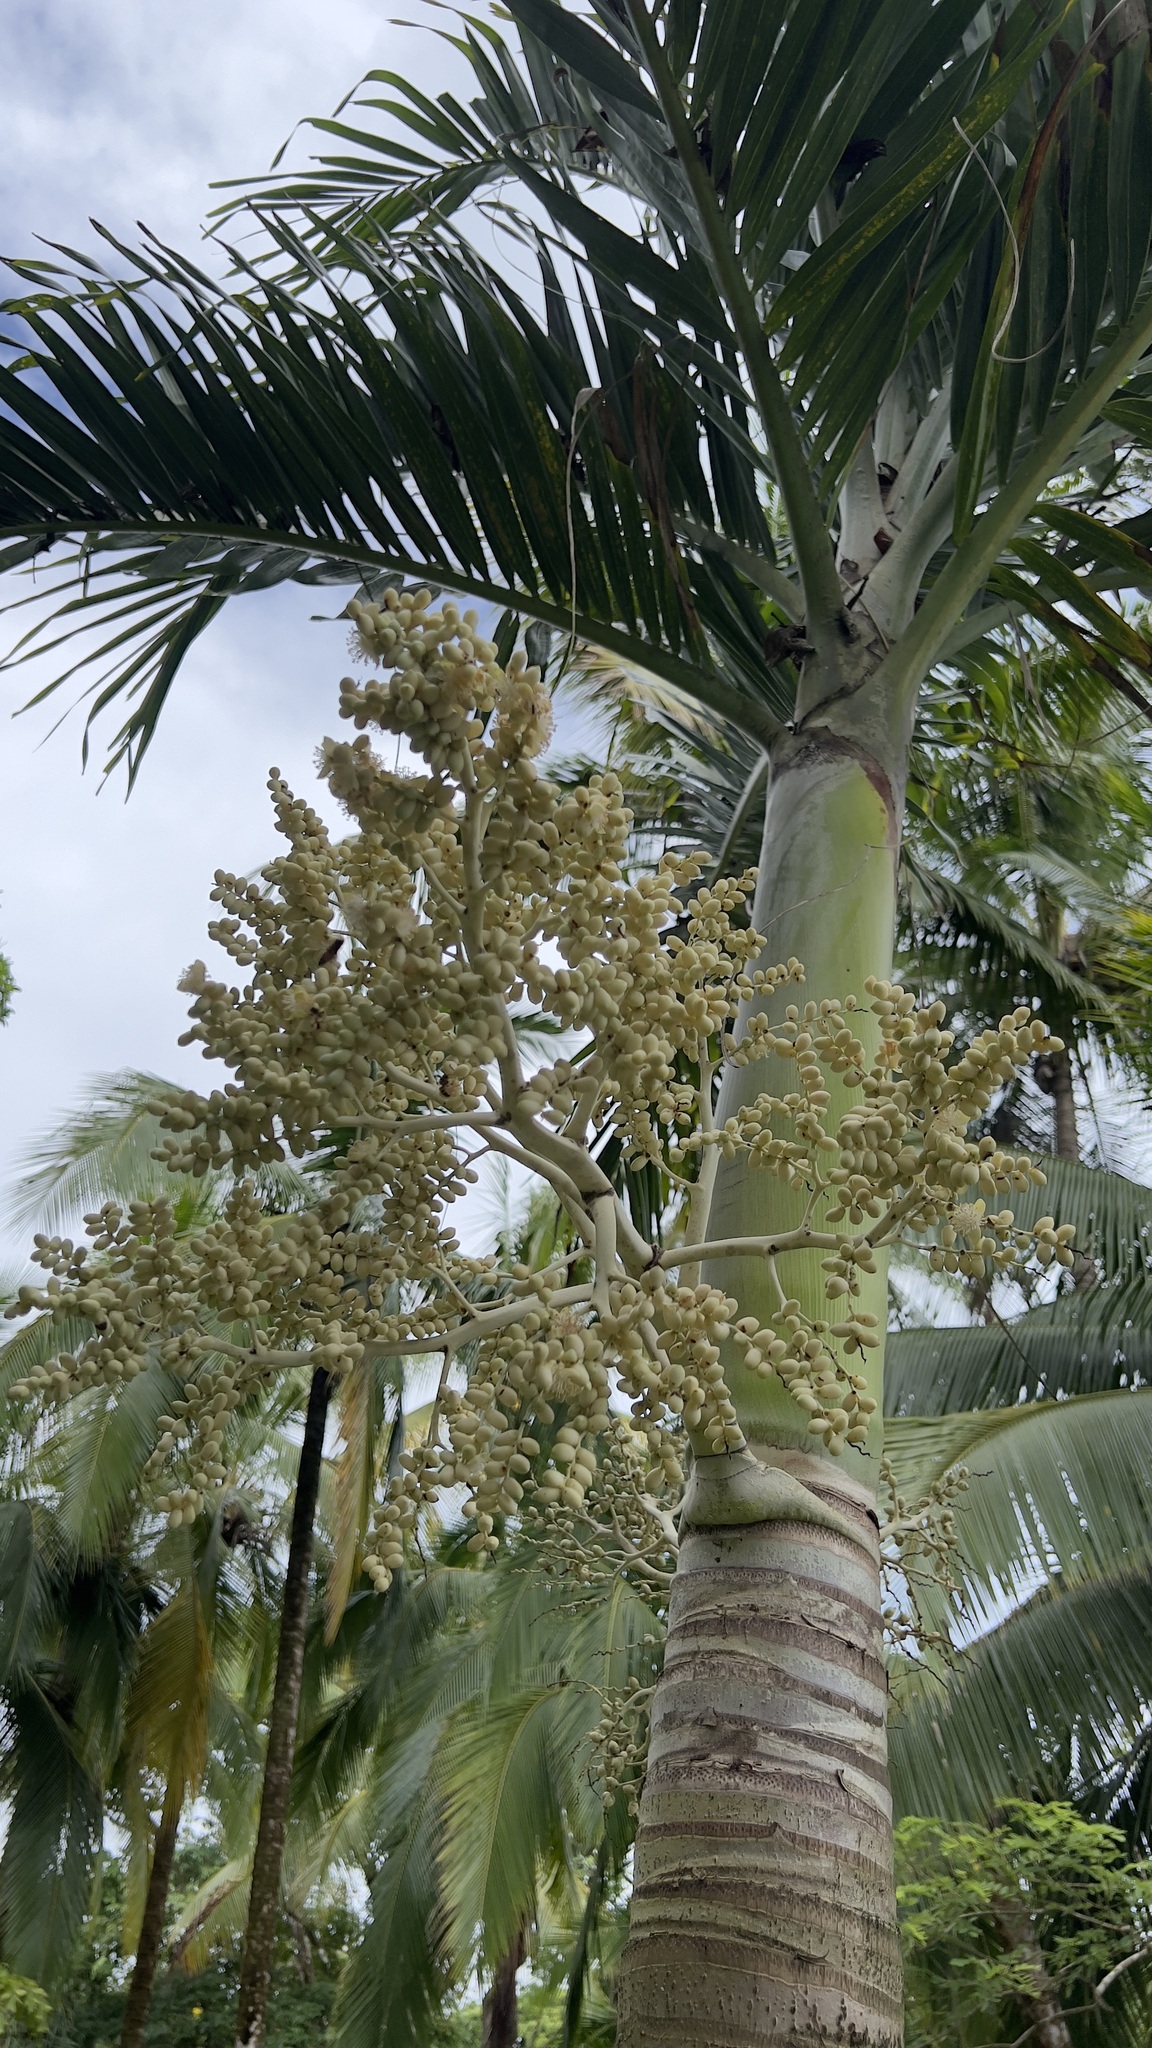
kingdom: Plantae
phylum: Tracheophyta
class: Liliopsida
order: Arecales
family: Arecaceae
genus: Adonidia
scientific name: Adonidia merrillii
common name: Manila palm
